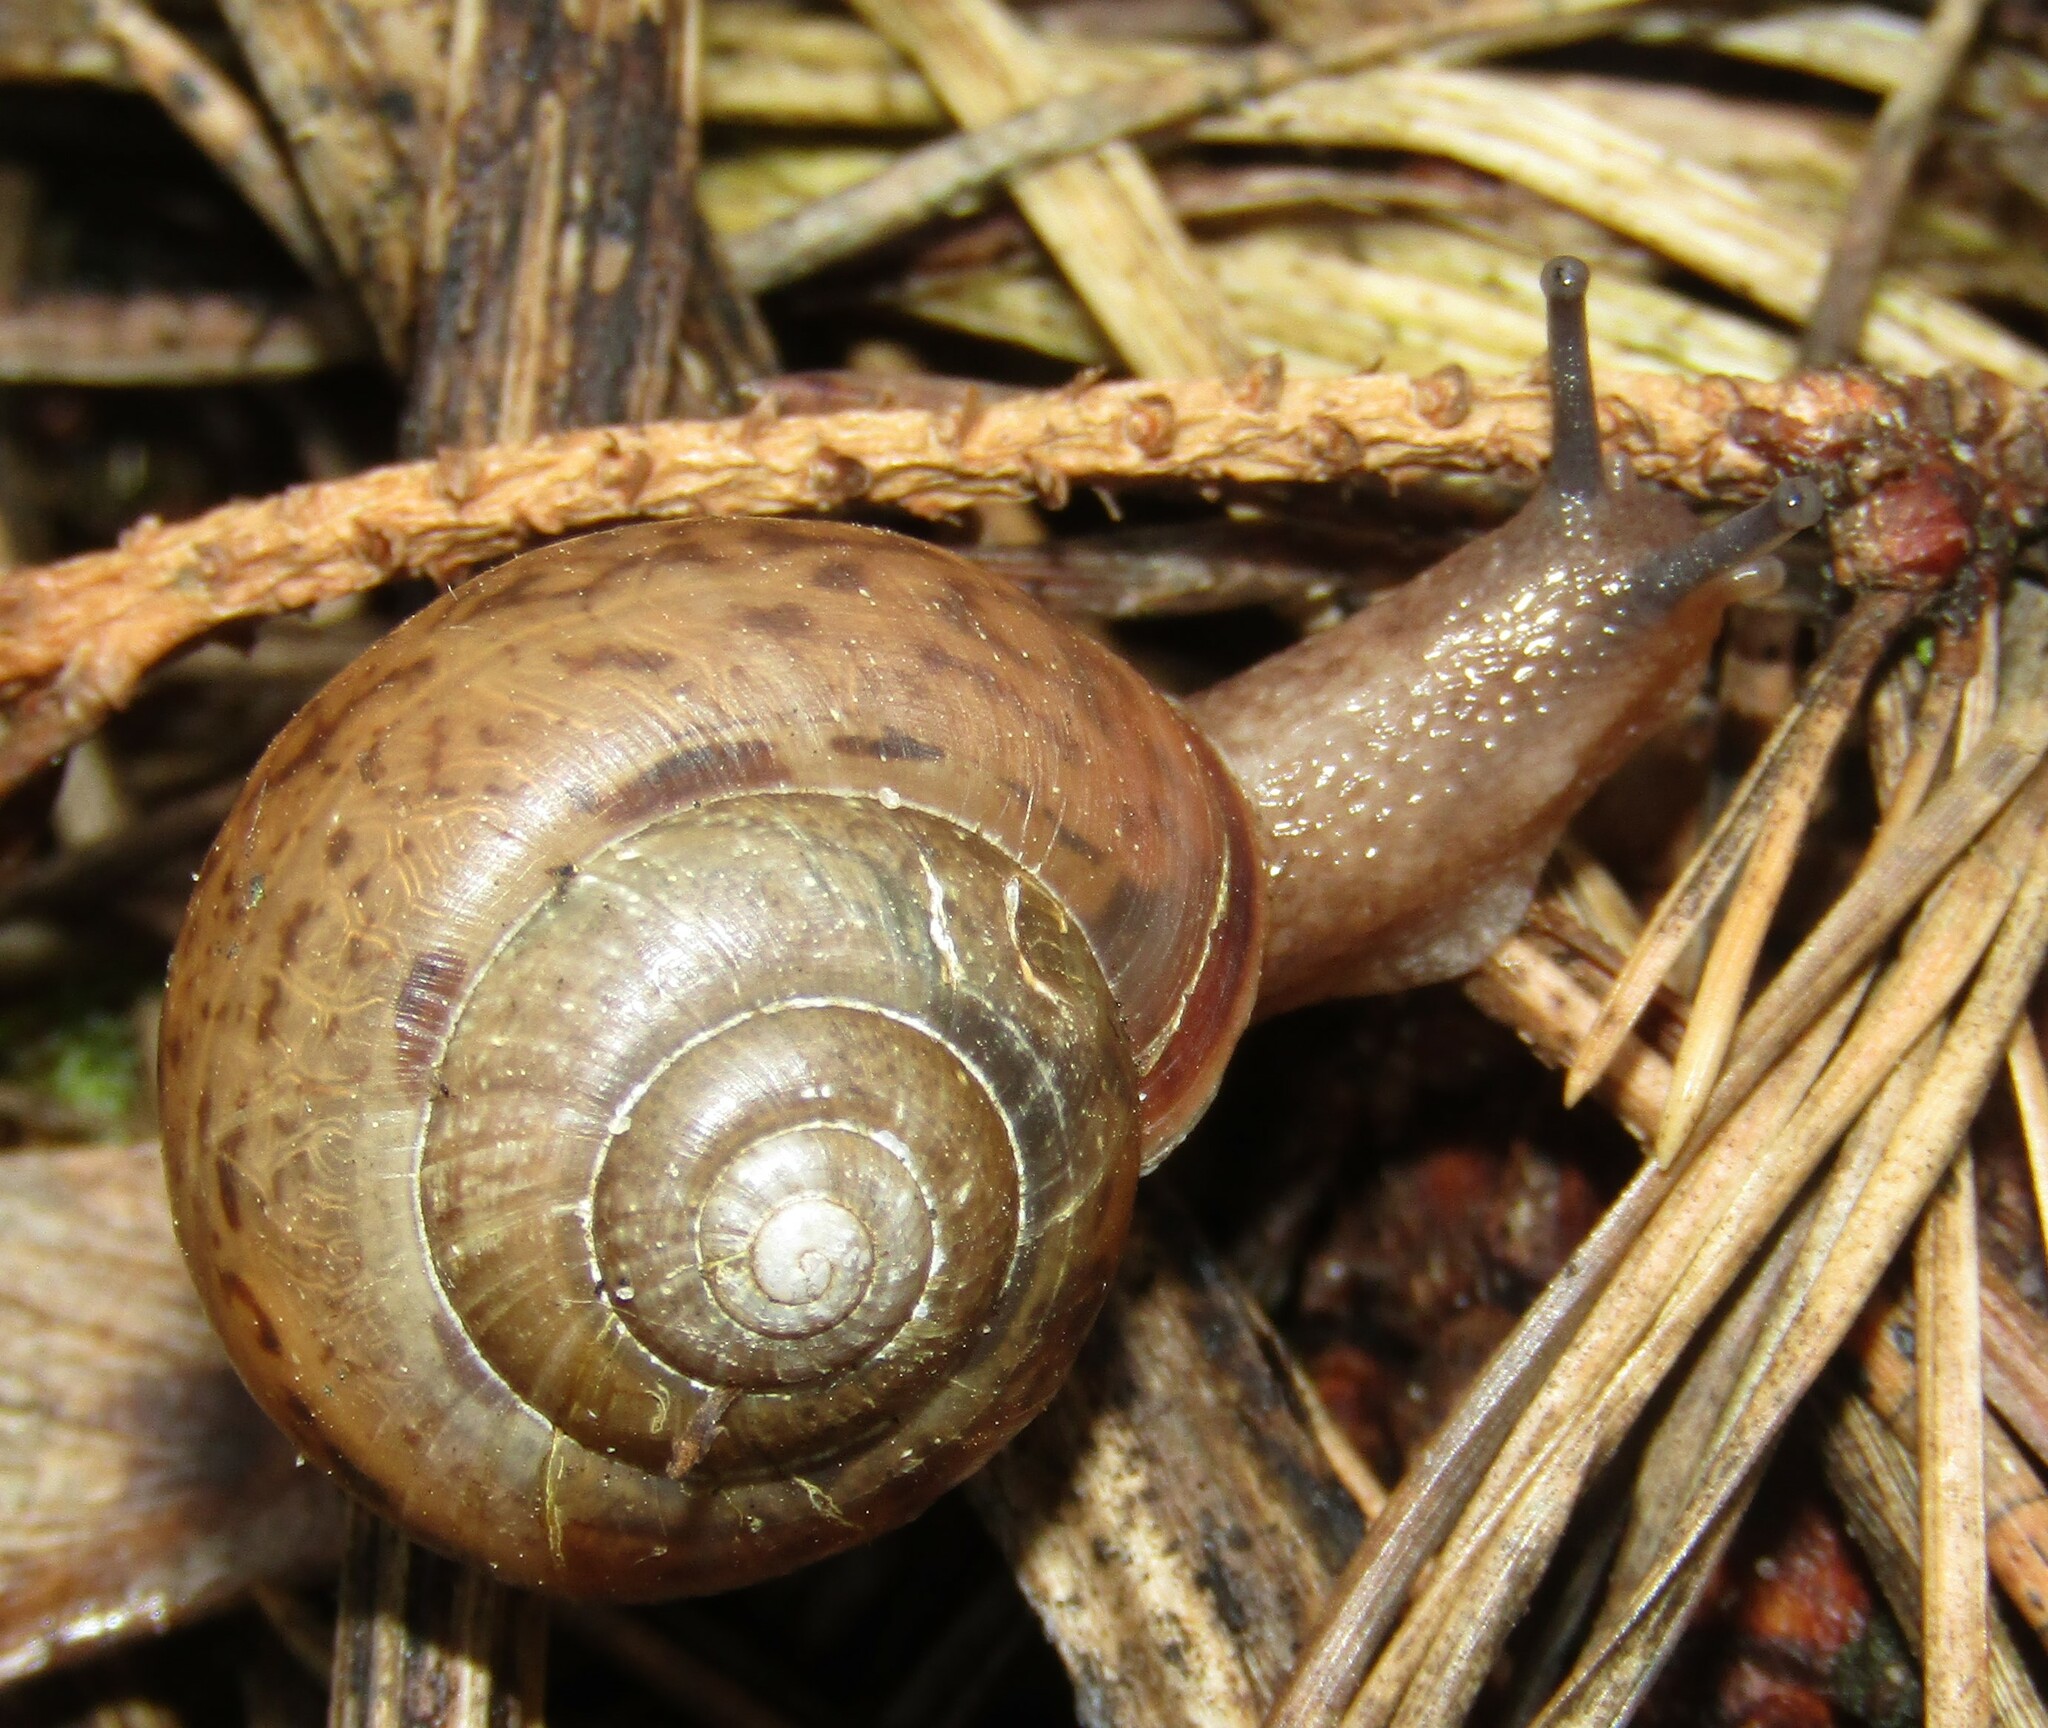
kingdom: Animalia
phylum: Mollusca
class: Gastropoda
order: Stylommatophora
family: Camaenidae
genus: Fruticicola
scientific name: Fruticicola fruticum
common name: Bush snail
